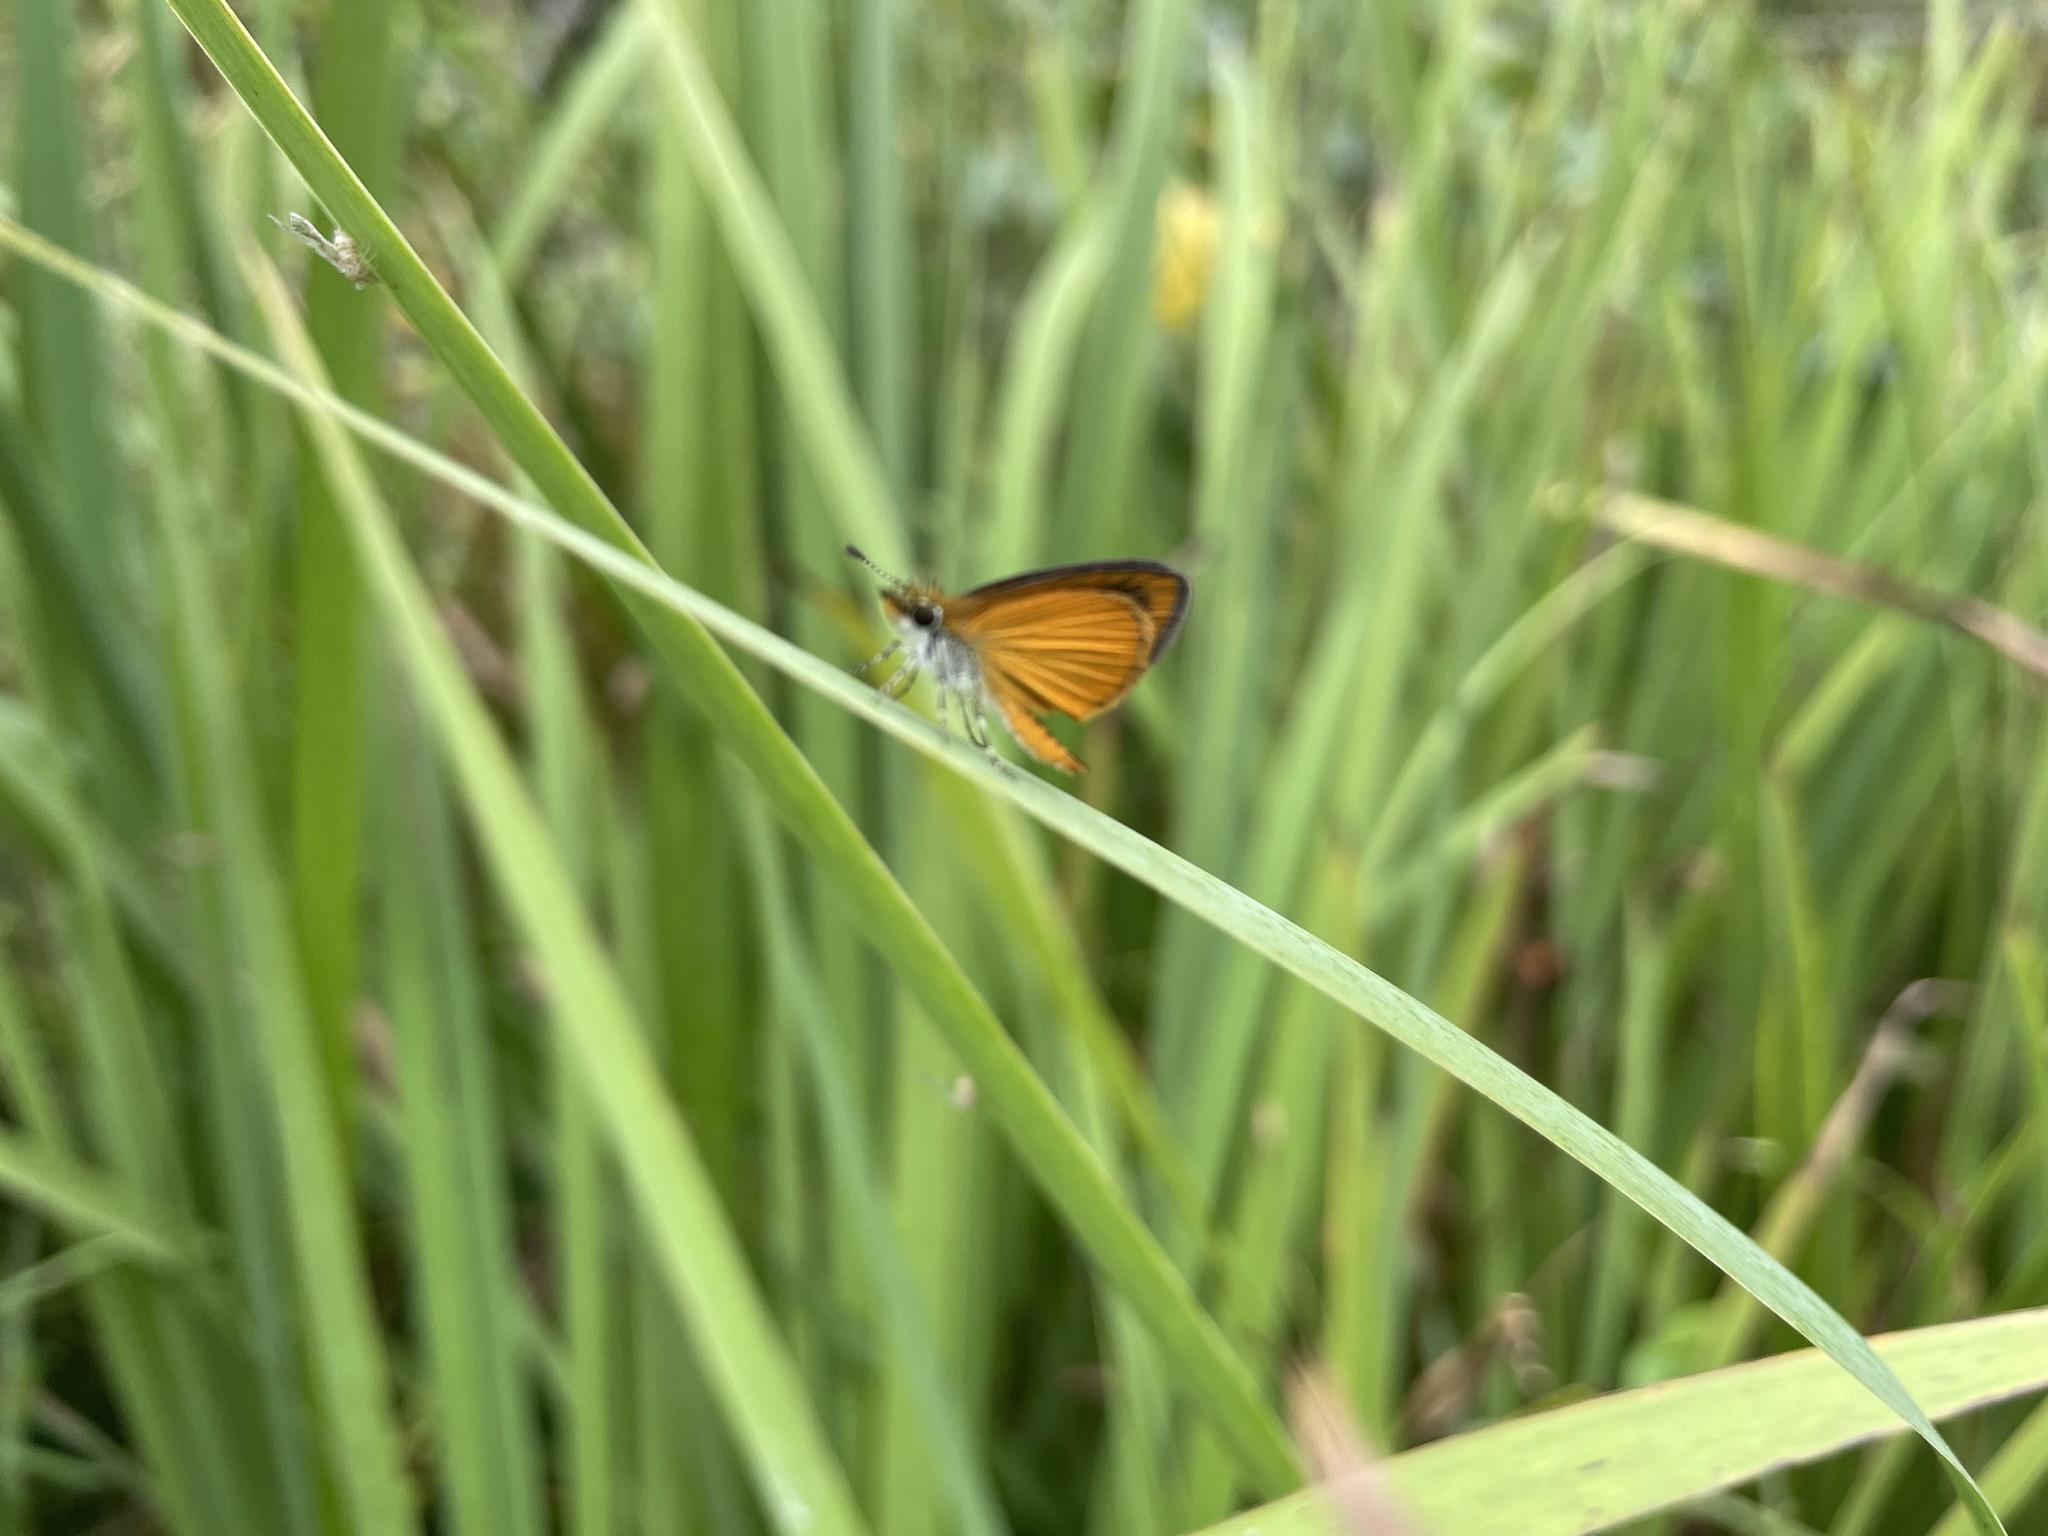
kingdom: Animalia
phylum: Arthropoda
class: Insecta
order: Lepidoptera
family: Hesperiidae
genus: Ancyloxypha
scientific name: Ancyloxypha numitor
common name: Least skipper
